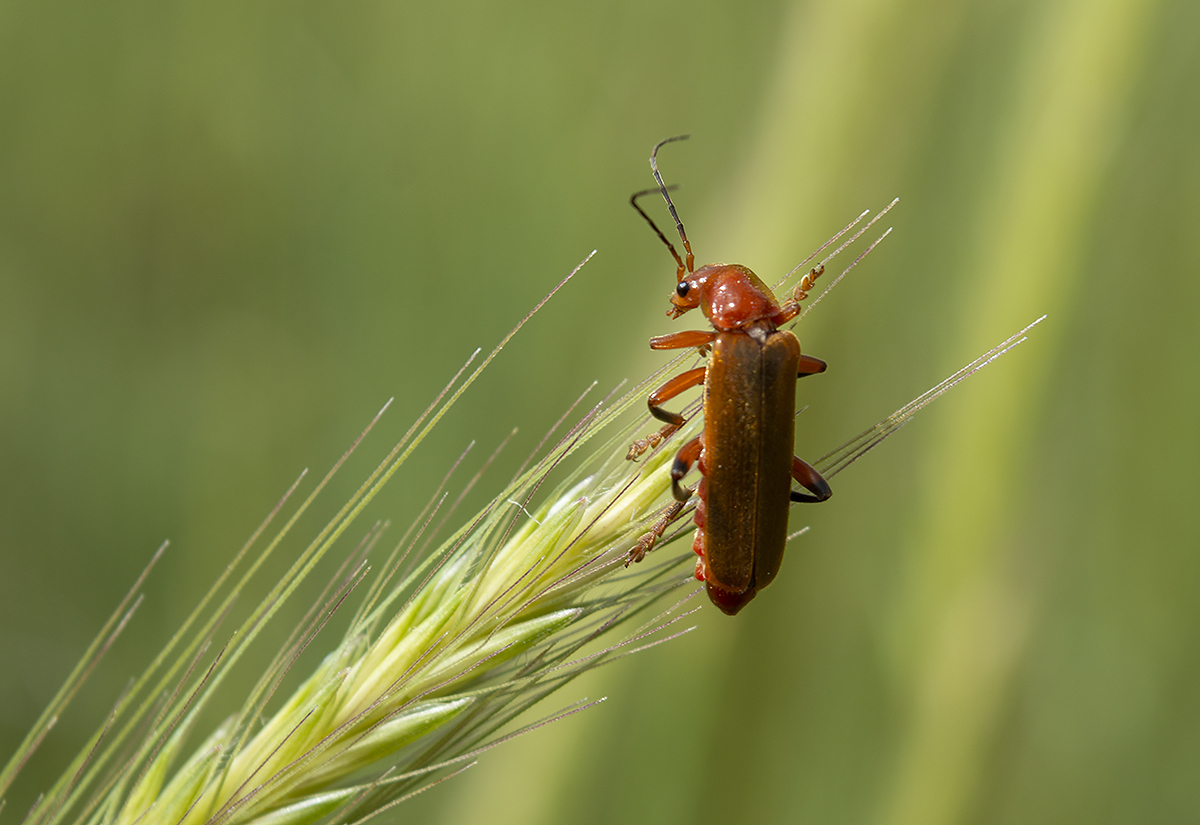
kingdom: Animalia
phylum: Arthropoda
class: Insecta
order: Coleoptera
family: Cantharidae
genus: Cantharis
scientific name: Cantharis livida
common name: Livid soldier beetle
